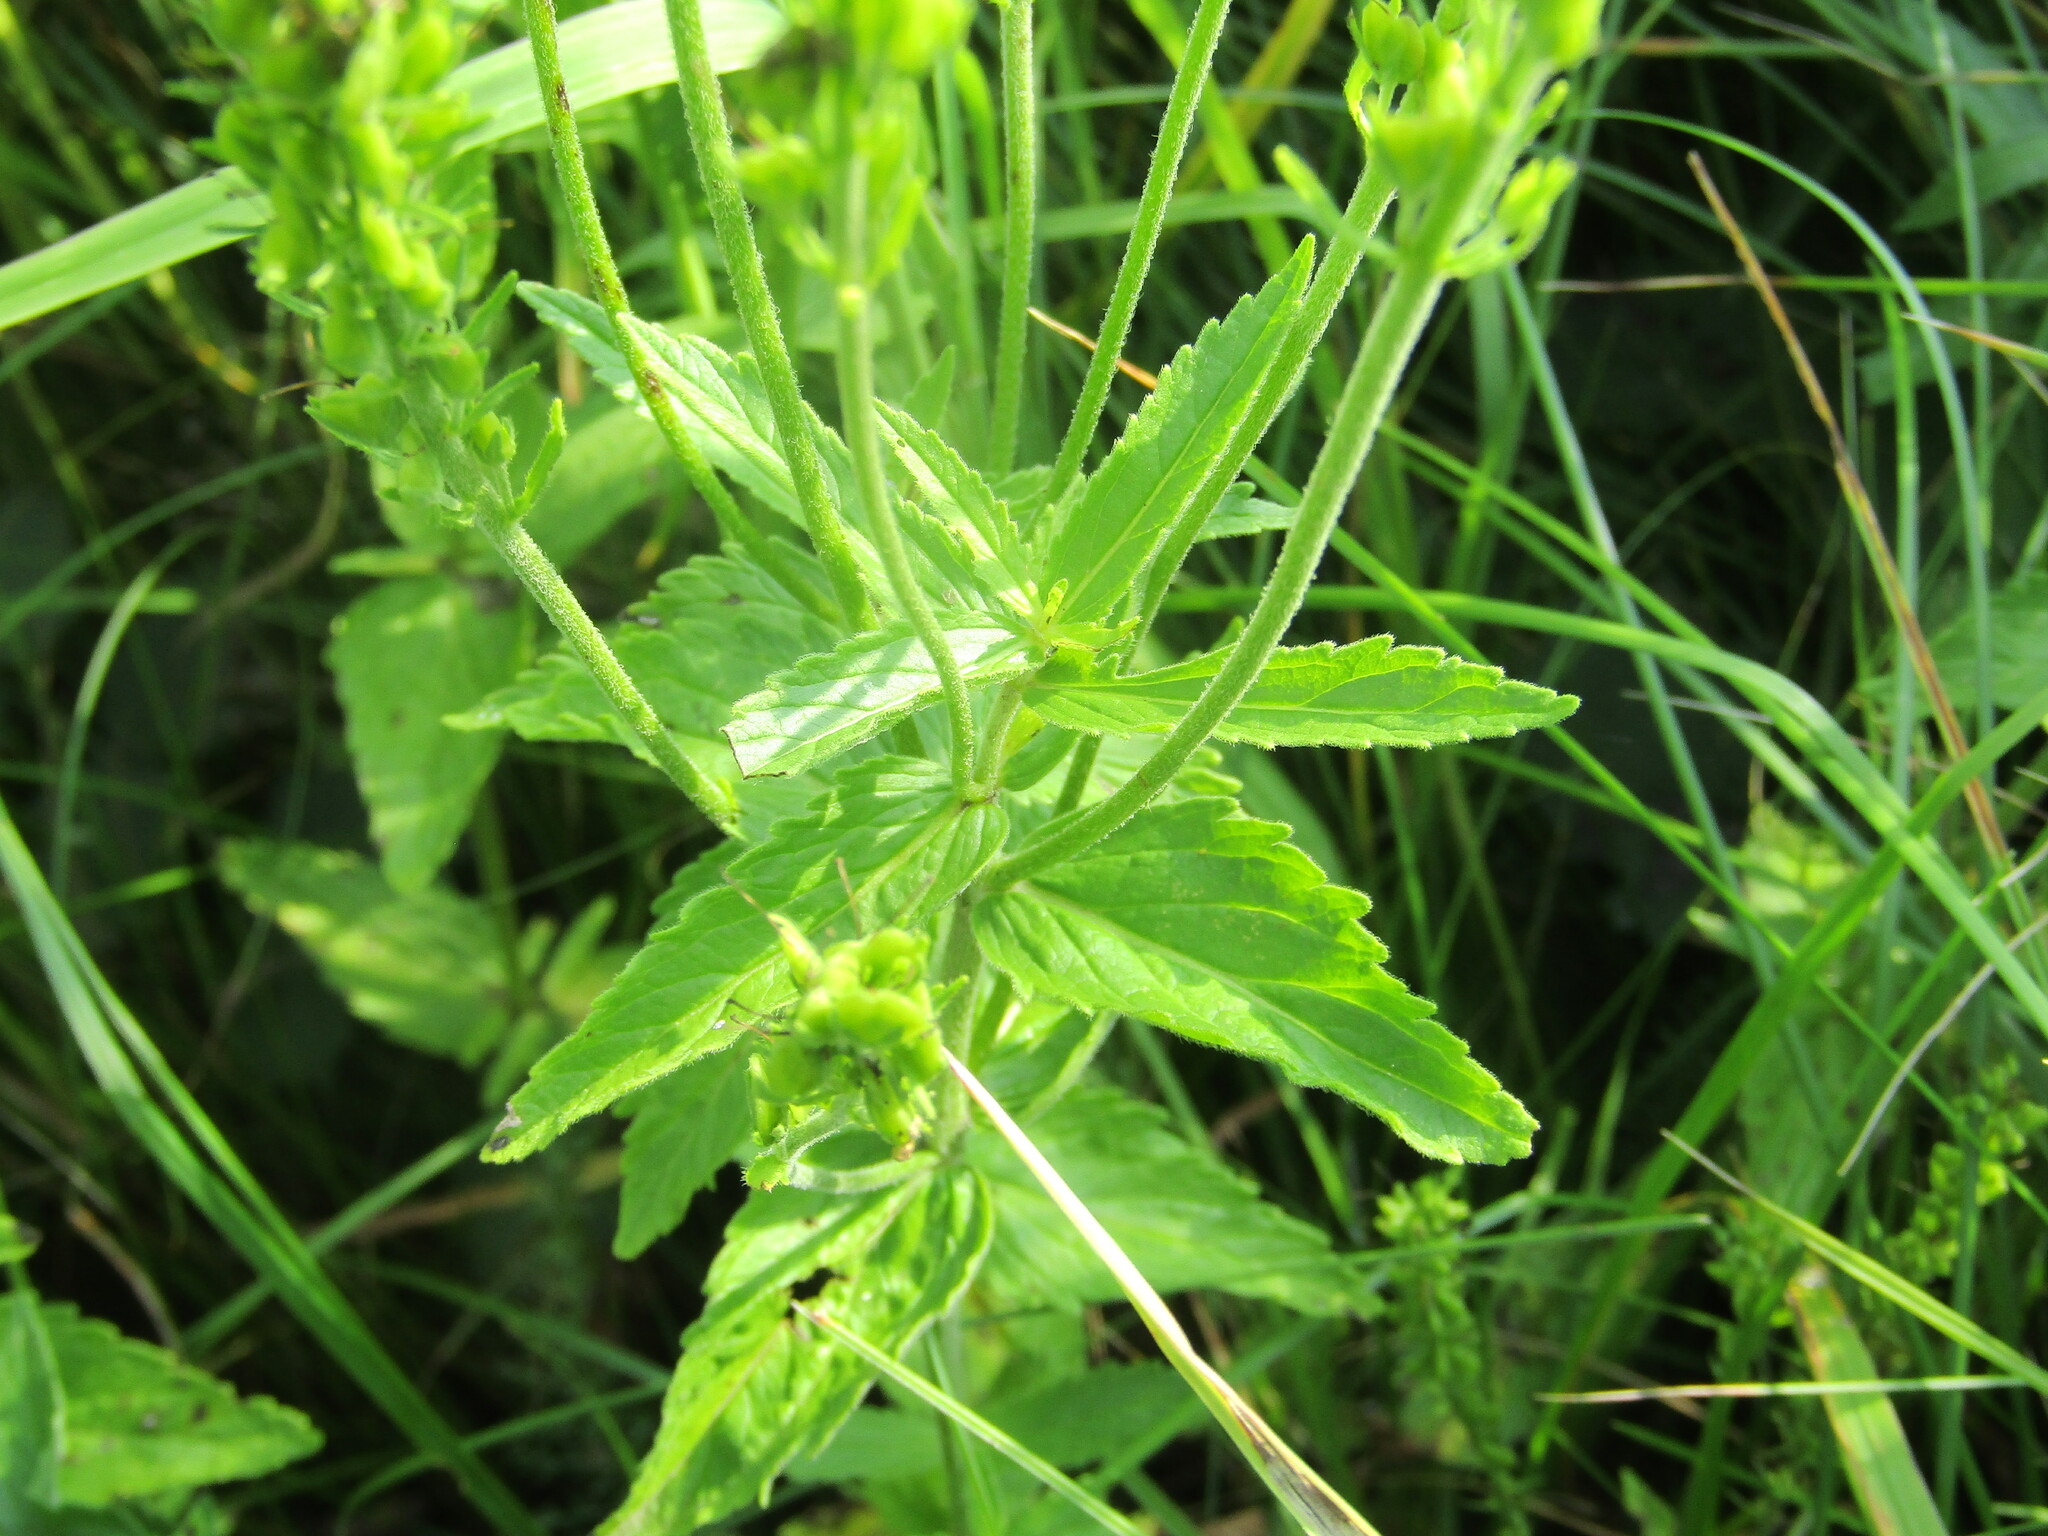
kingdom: Plantae
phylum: Tracheophyta
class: Magnoliopsida
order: Lamiales
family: Plantaginaceae
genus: Veronica
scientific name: Veronica teucrium
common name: Large speedwell
